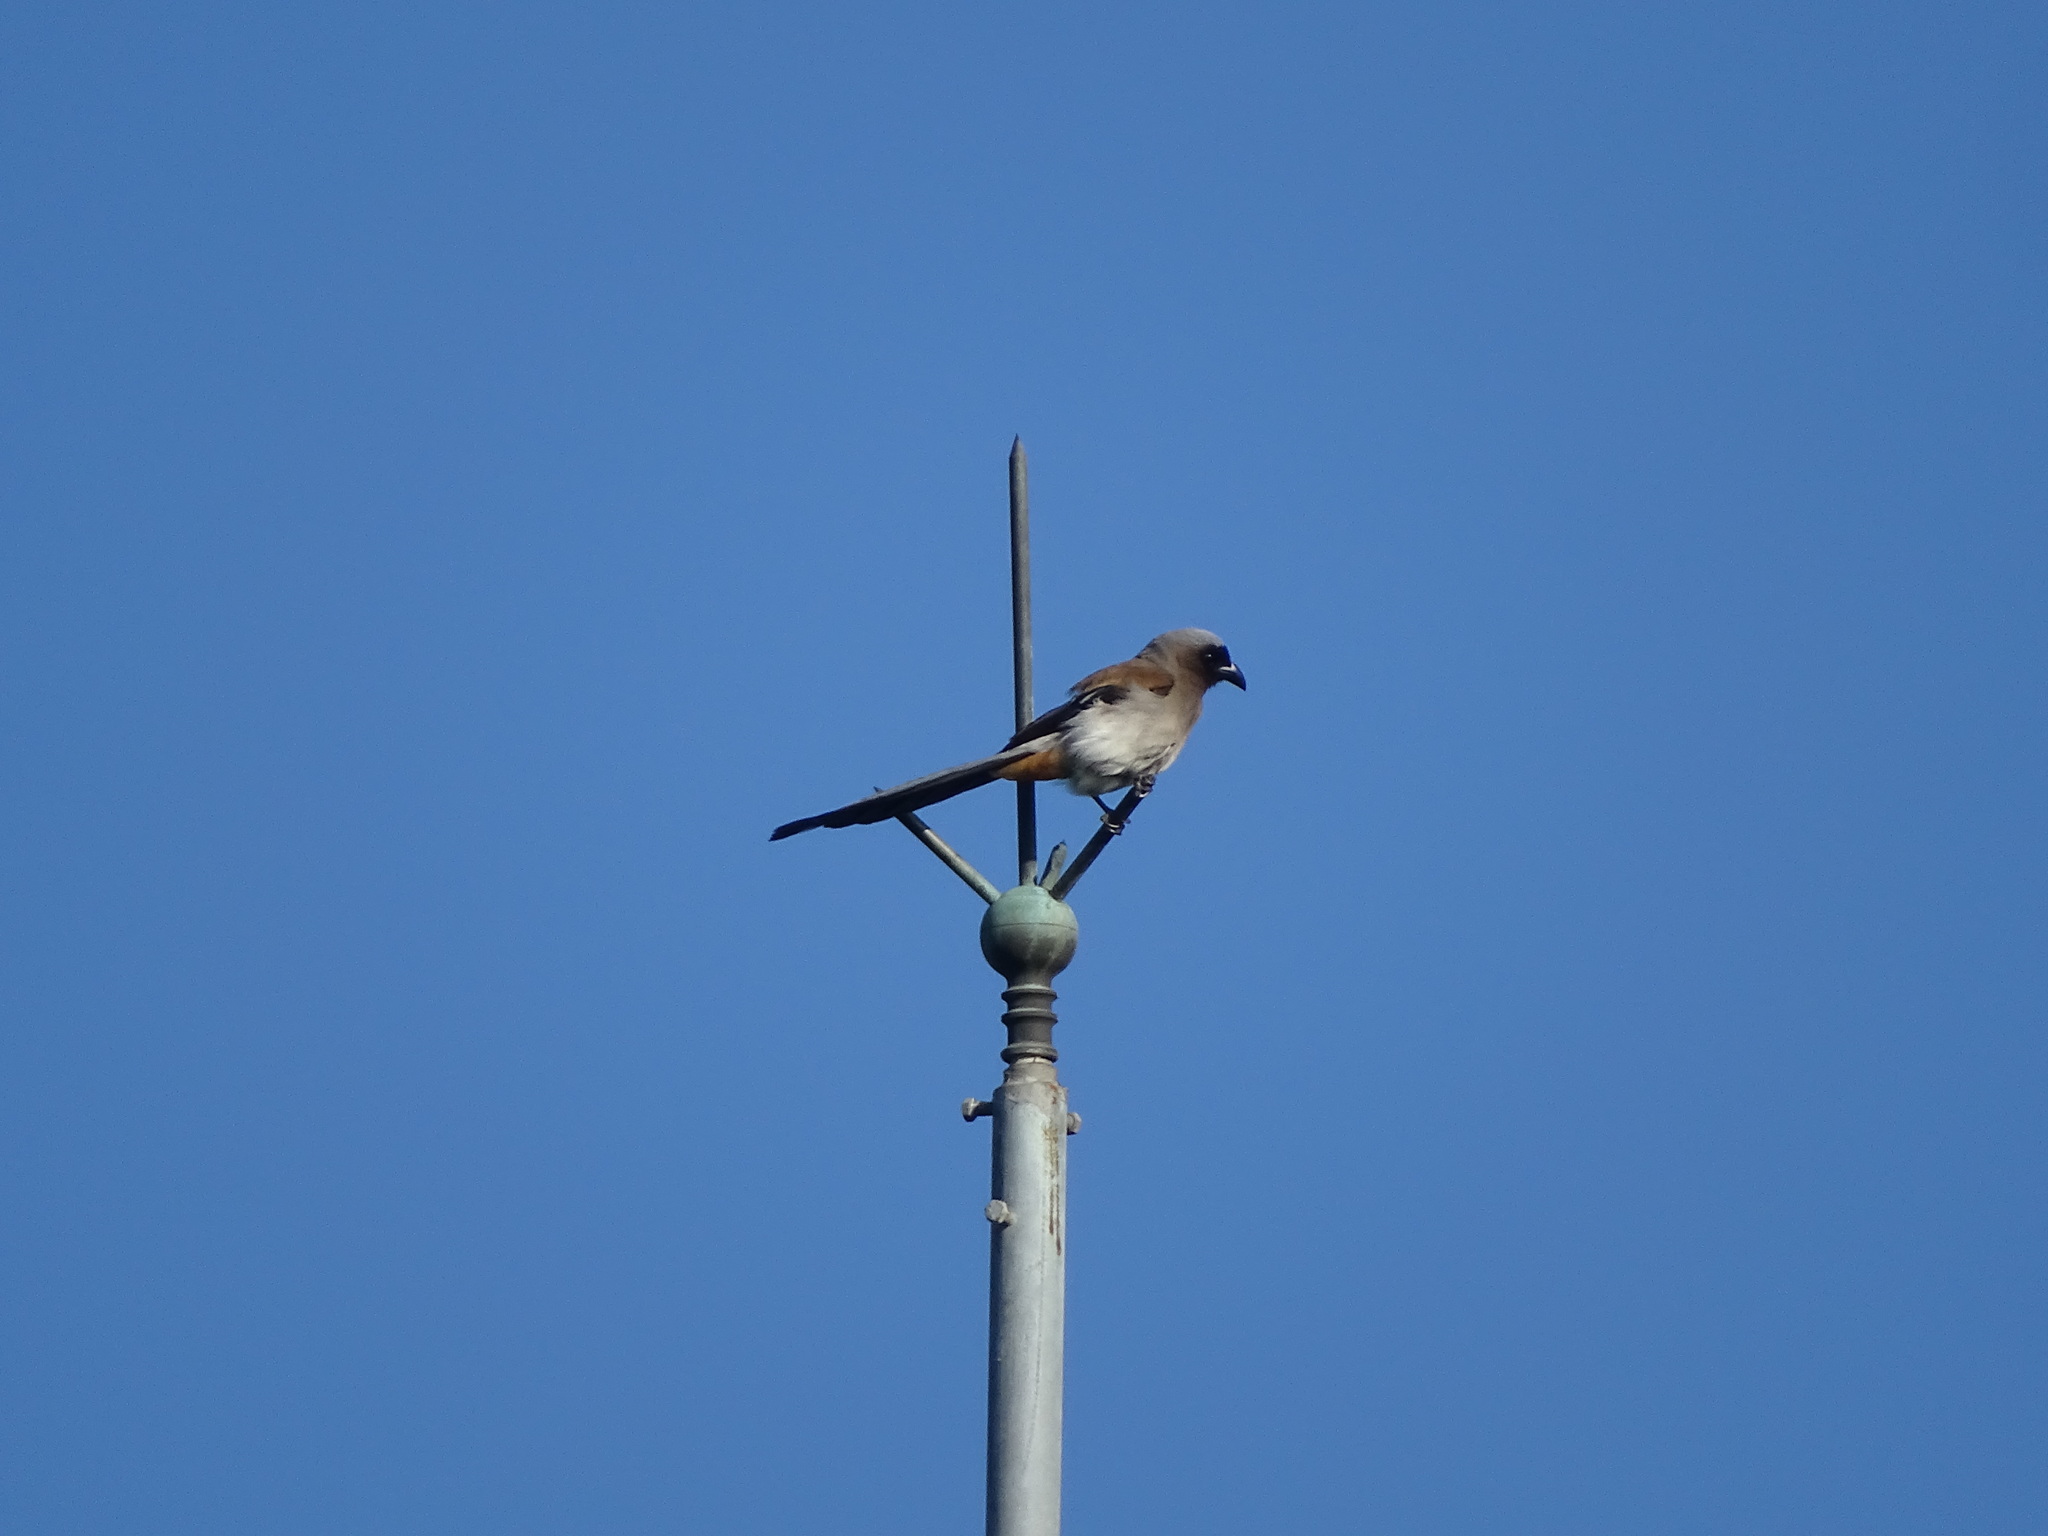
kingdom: Animalia
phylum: Chordata
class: Aves
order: Passeriformes
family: Corvidae
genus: Dendrocitta
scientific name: Dendrocitta formosae
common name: Grey treepie
